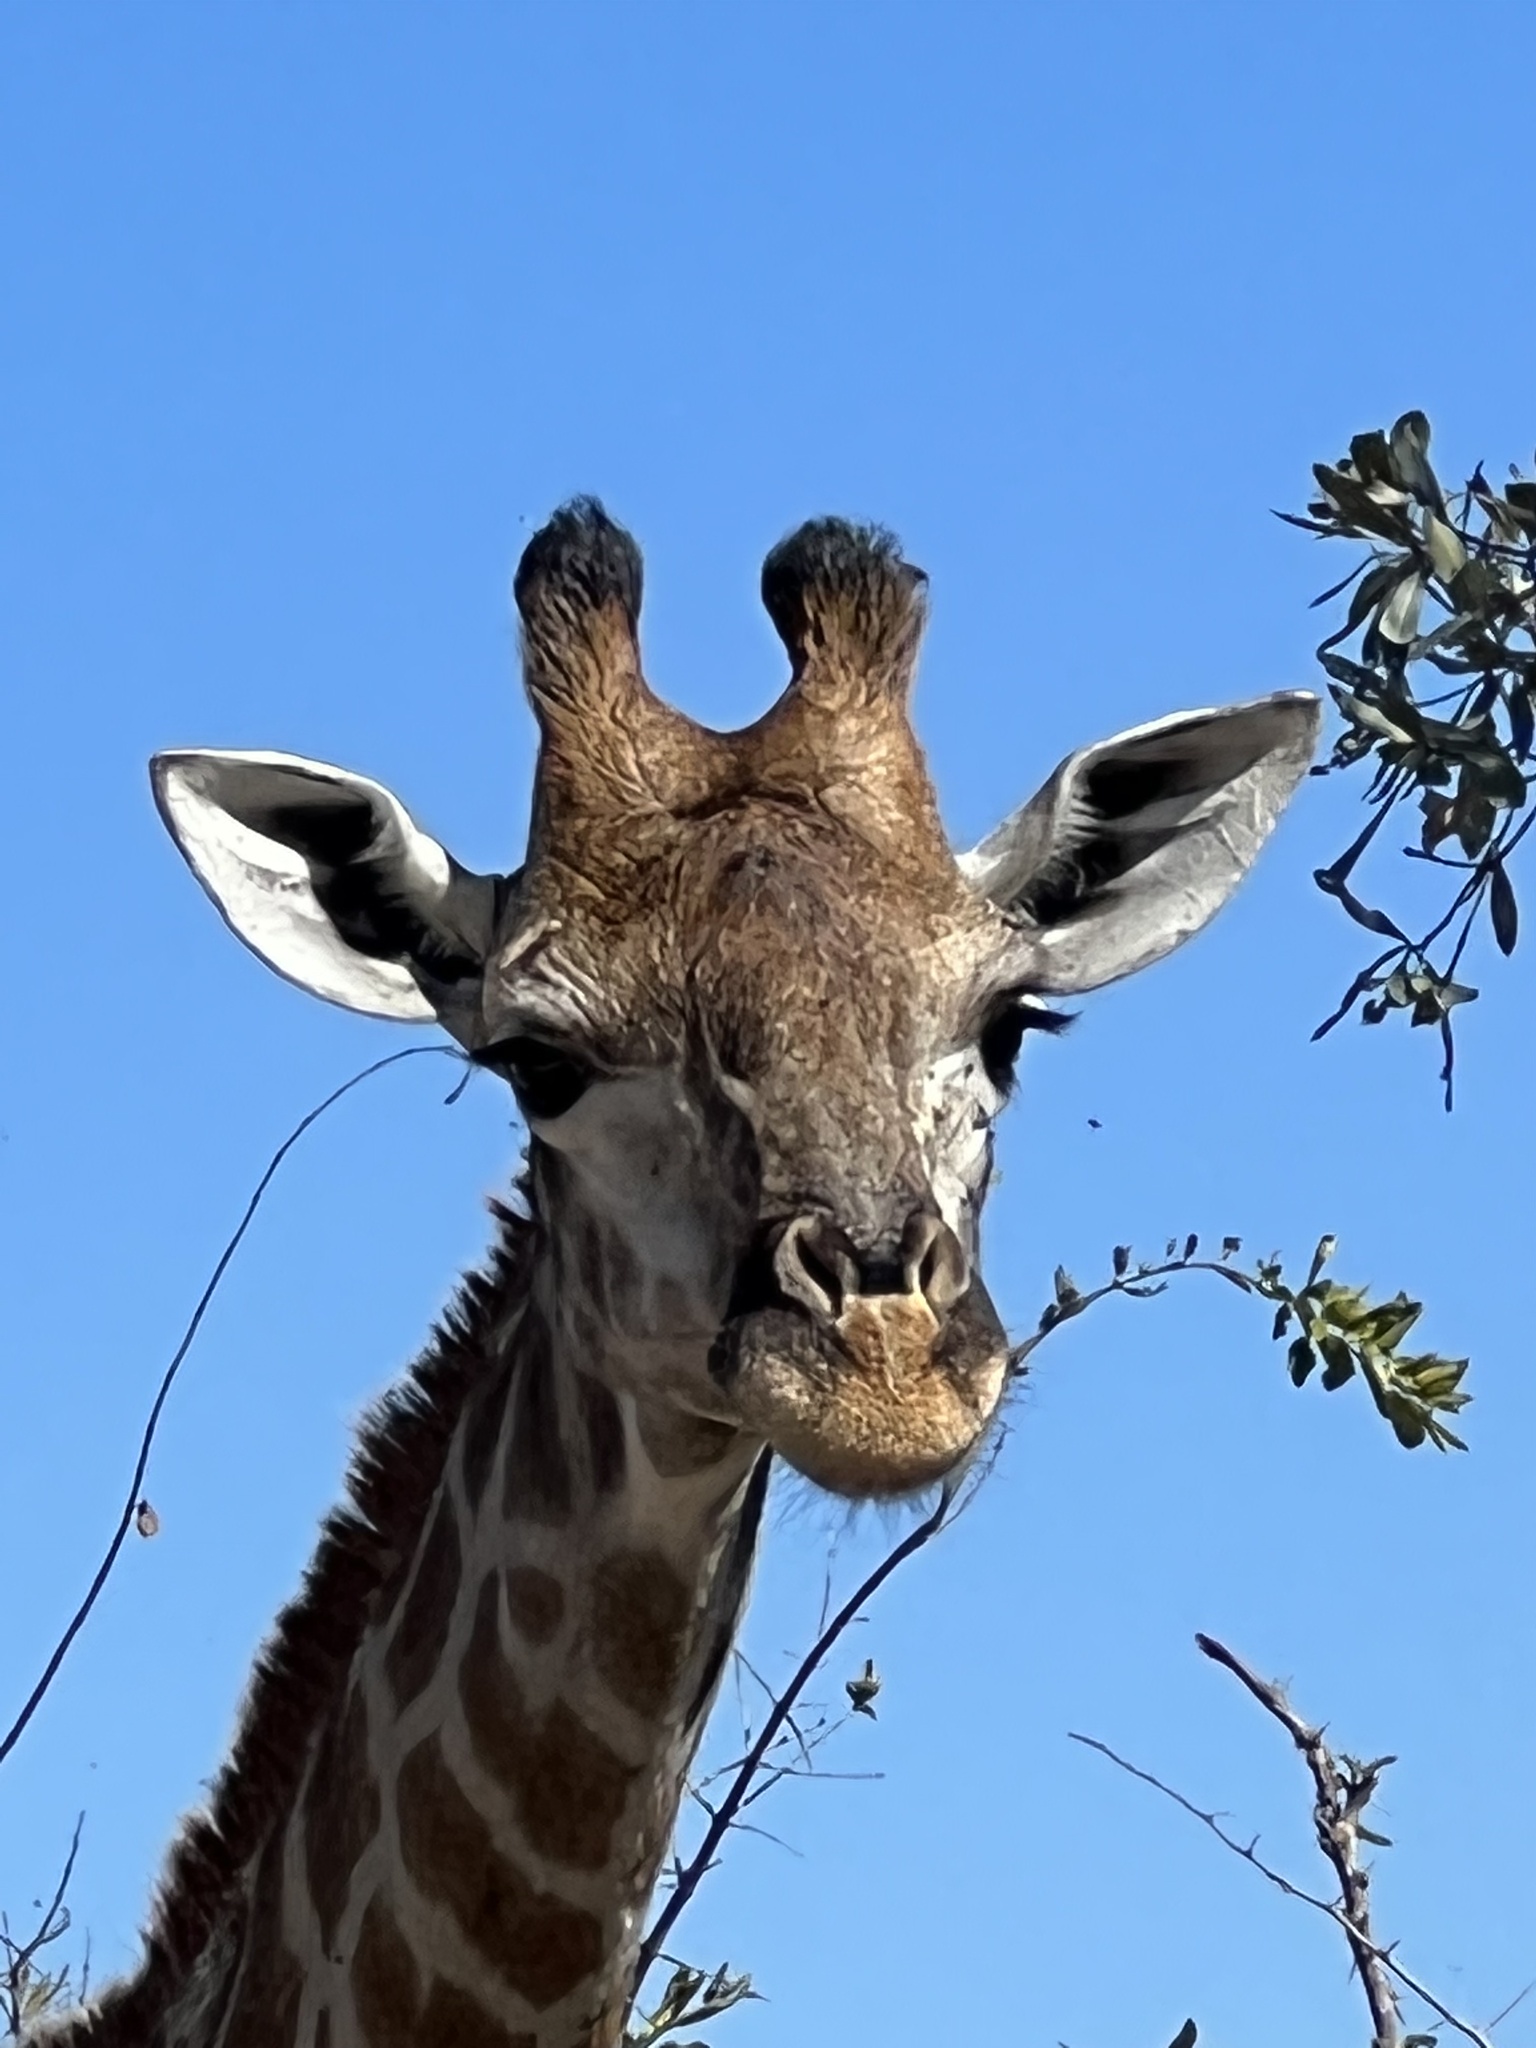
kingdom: Animalia
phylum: Chordata
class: Mammalia
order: Artiodactyla
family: Giraffidae
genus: Giraffa
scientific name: Giraffa giraffa
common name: Southern giraffe
